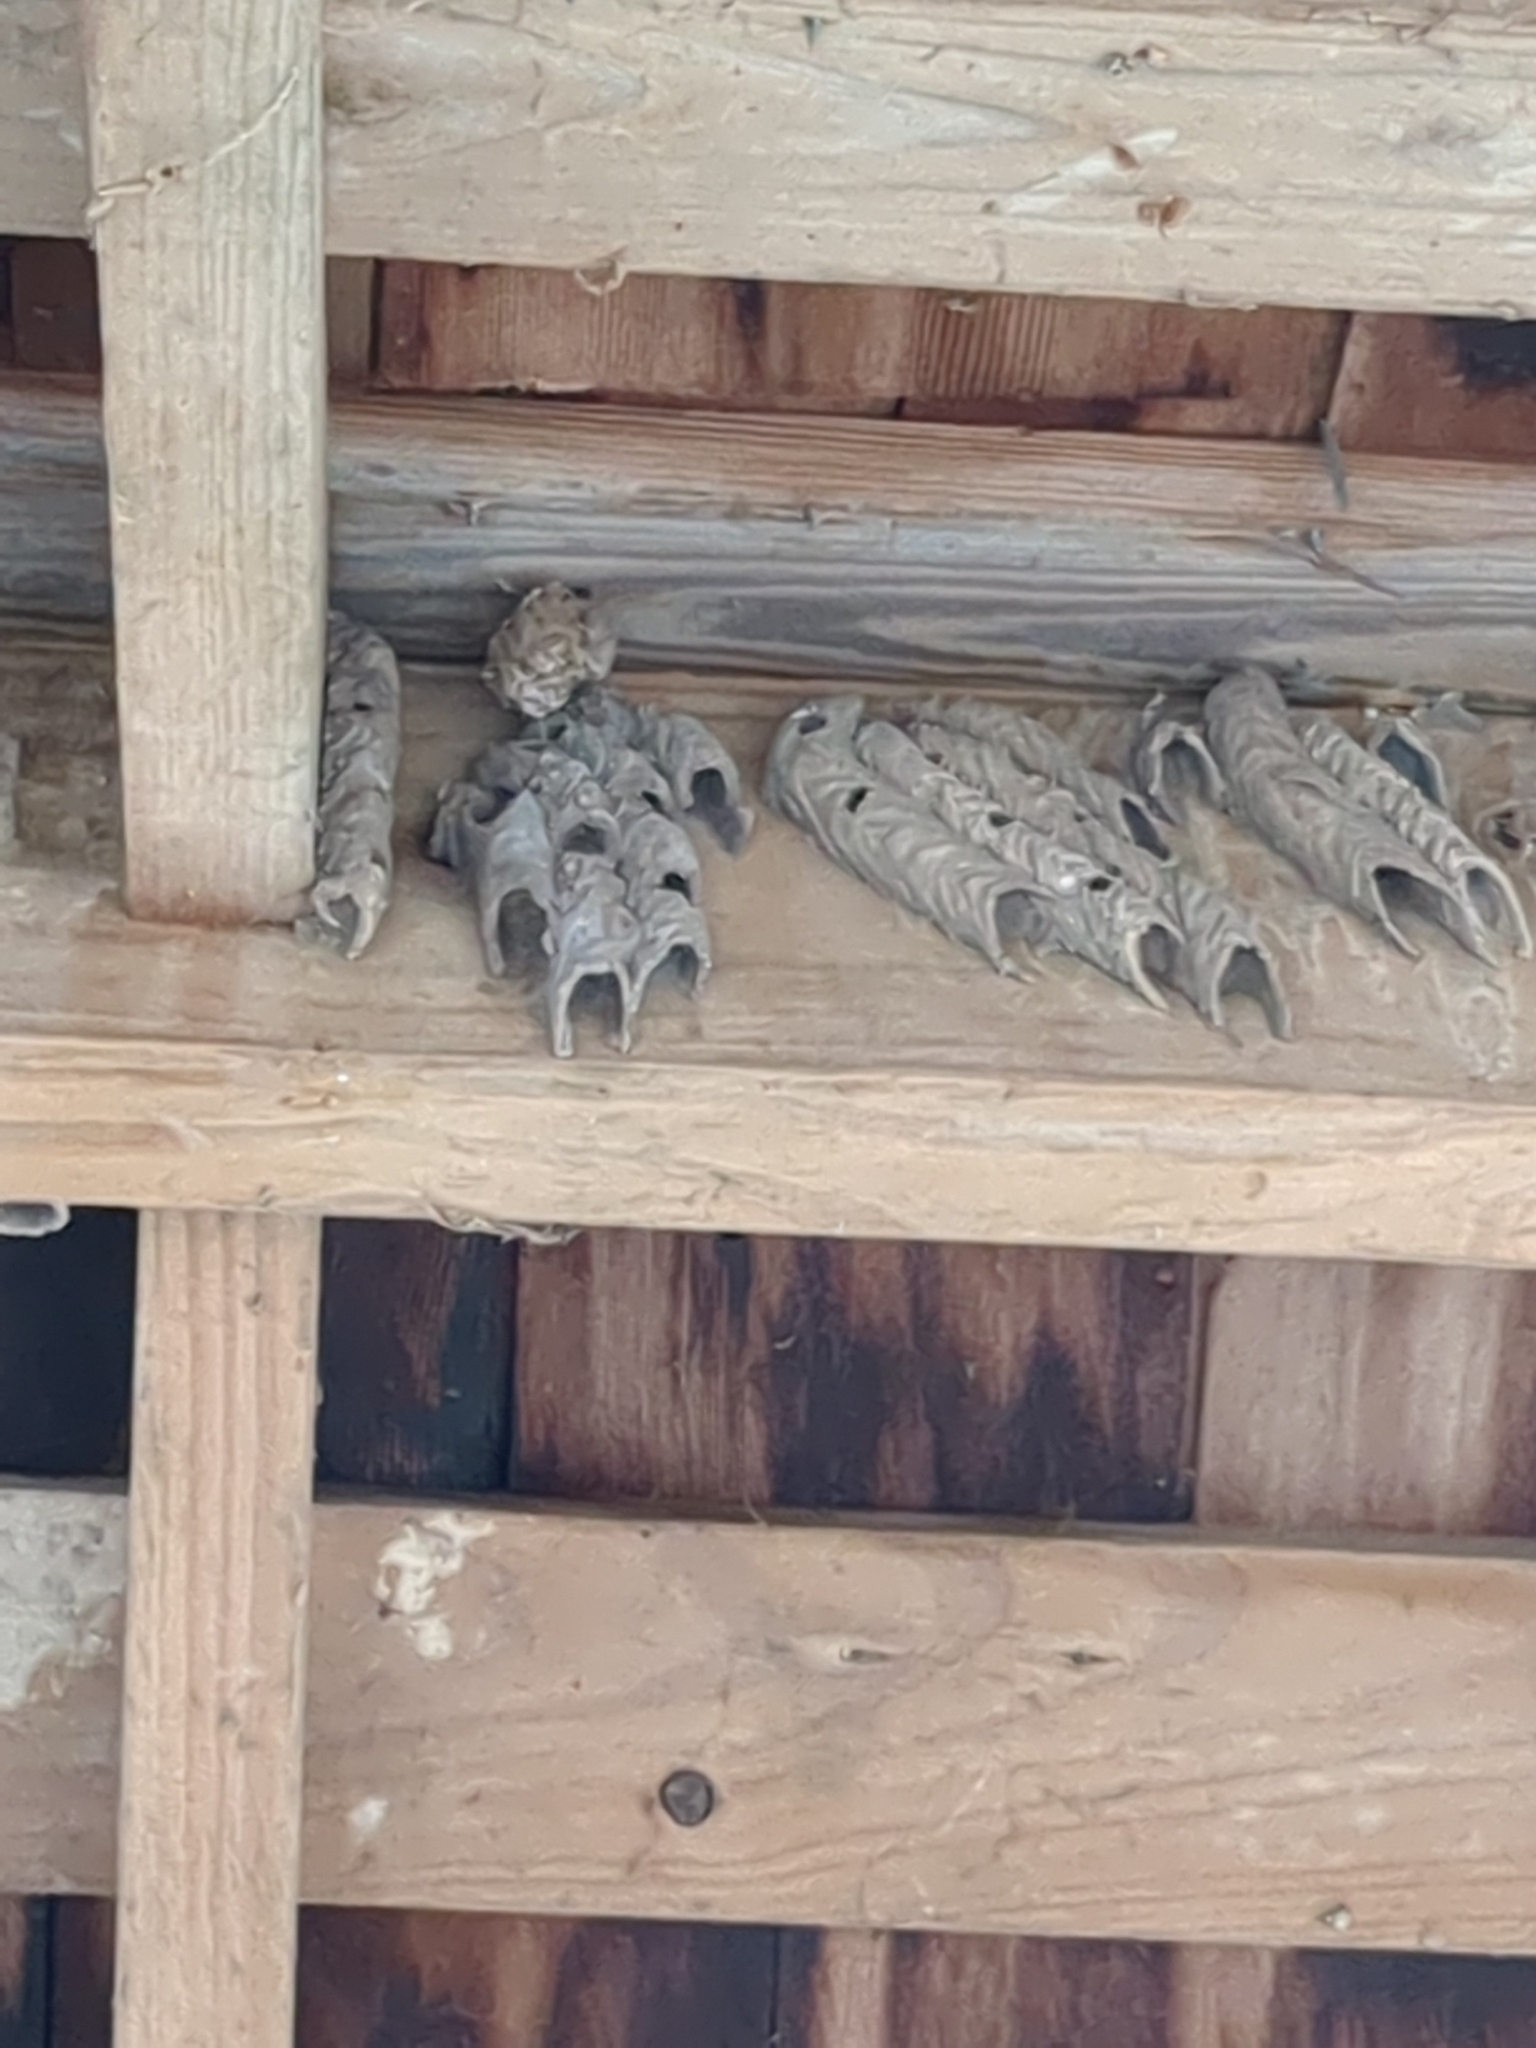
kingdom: Animalia
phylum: Arthropoda
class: Insecta
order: Hymenoptera
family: Crabronidae
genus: Trypoxylon
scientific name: Trypoxylon politum
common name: Organ-pipe mud-dauber wasp
